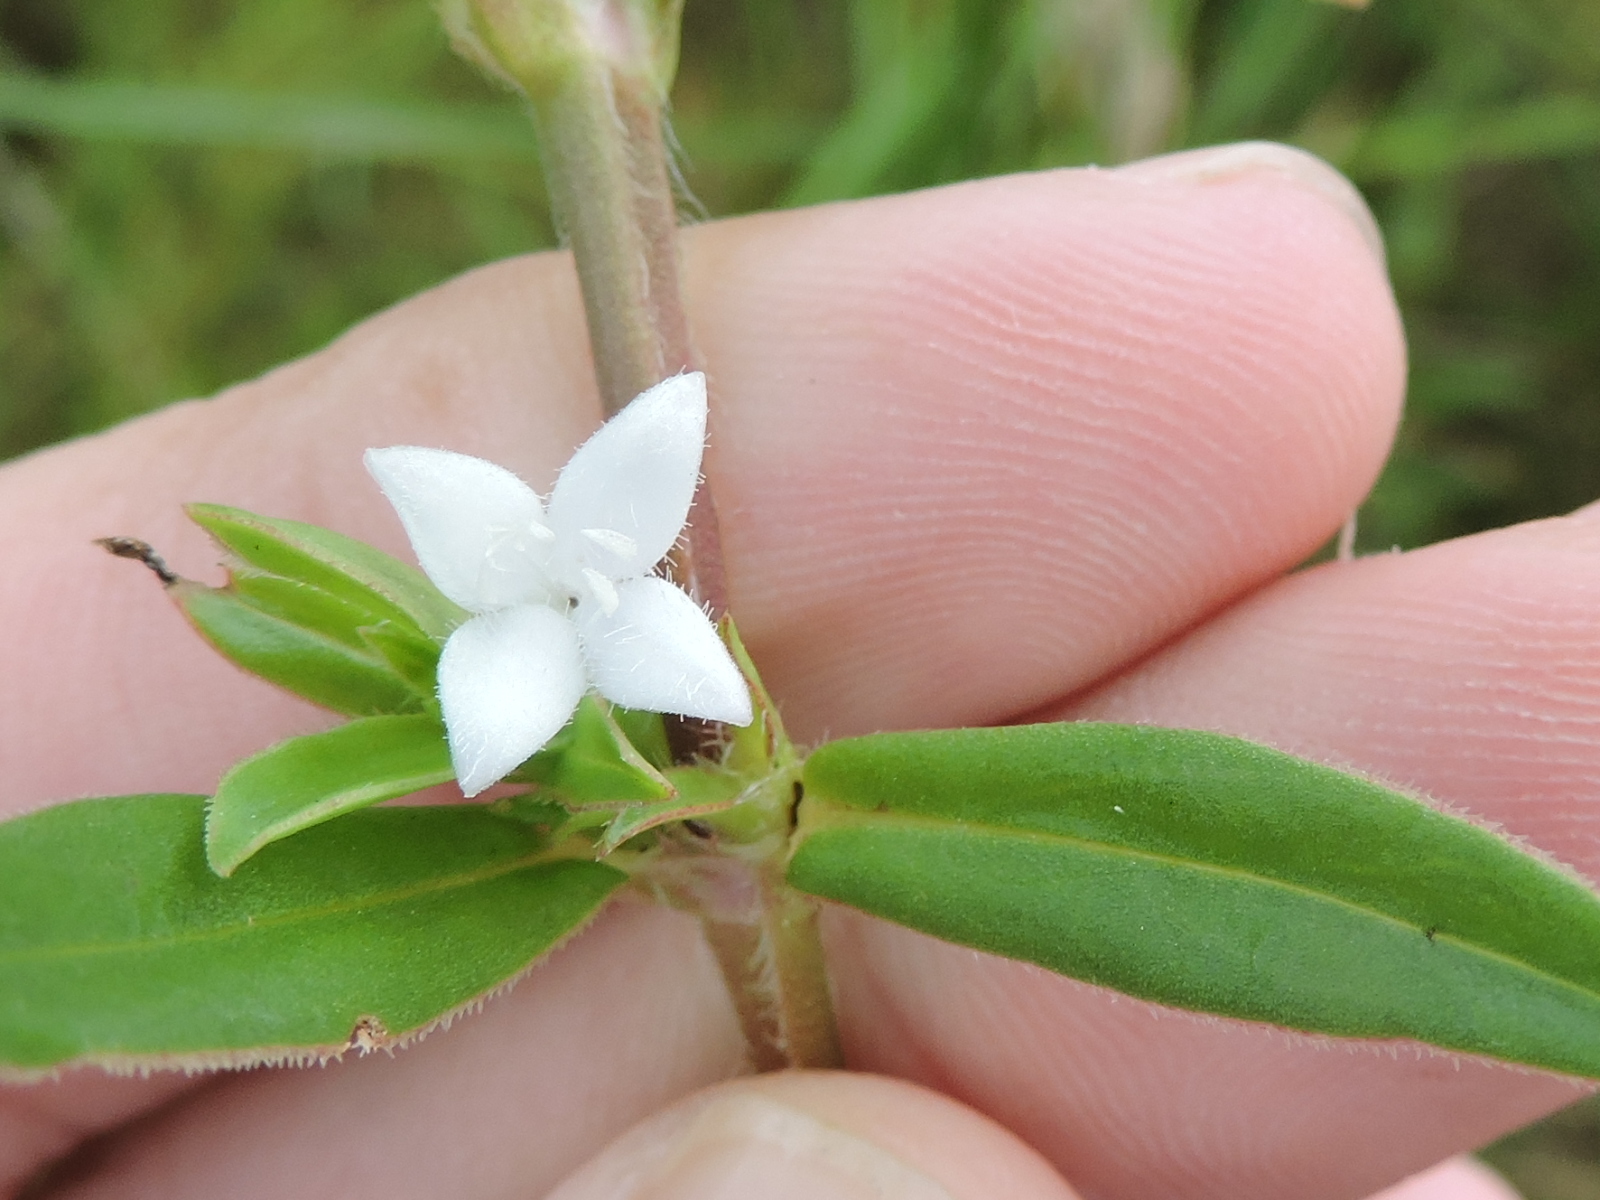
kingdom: Plantae
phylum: Tracheophyta
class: Magnoliopsida
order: Gentianales
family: Rubiaceae
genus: Diodia
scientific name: Diodia virginiana
